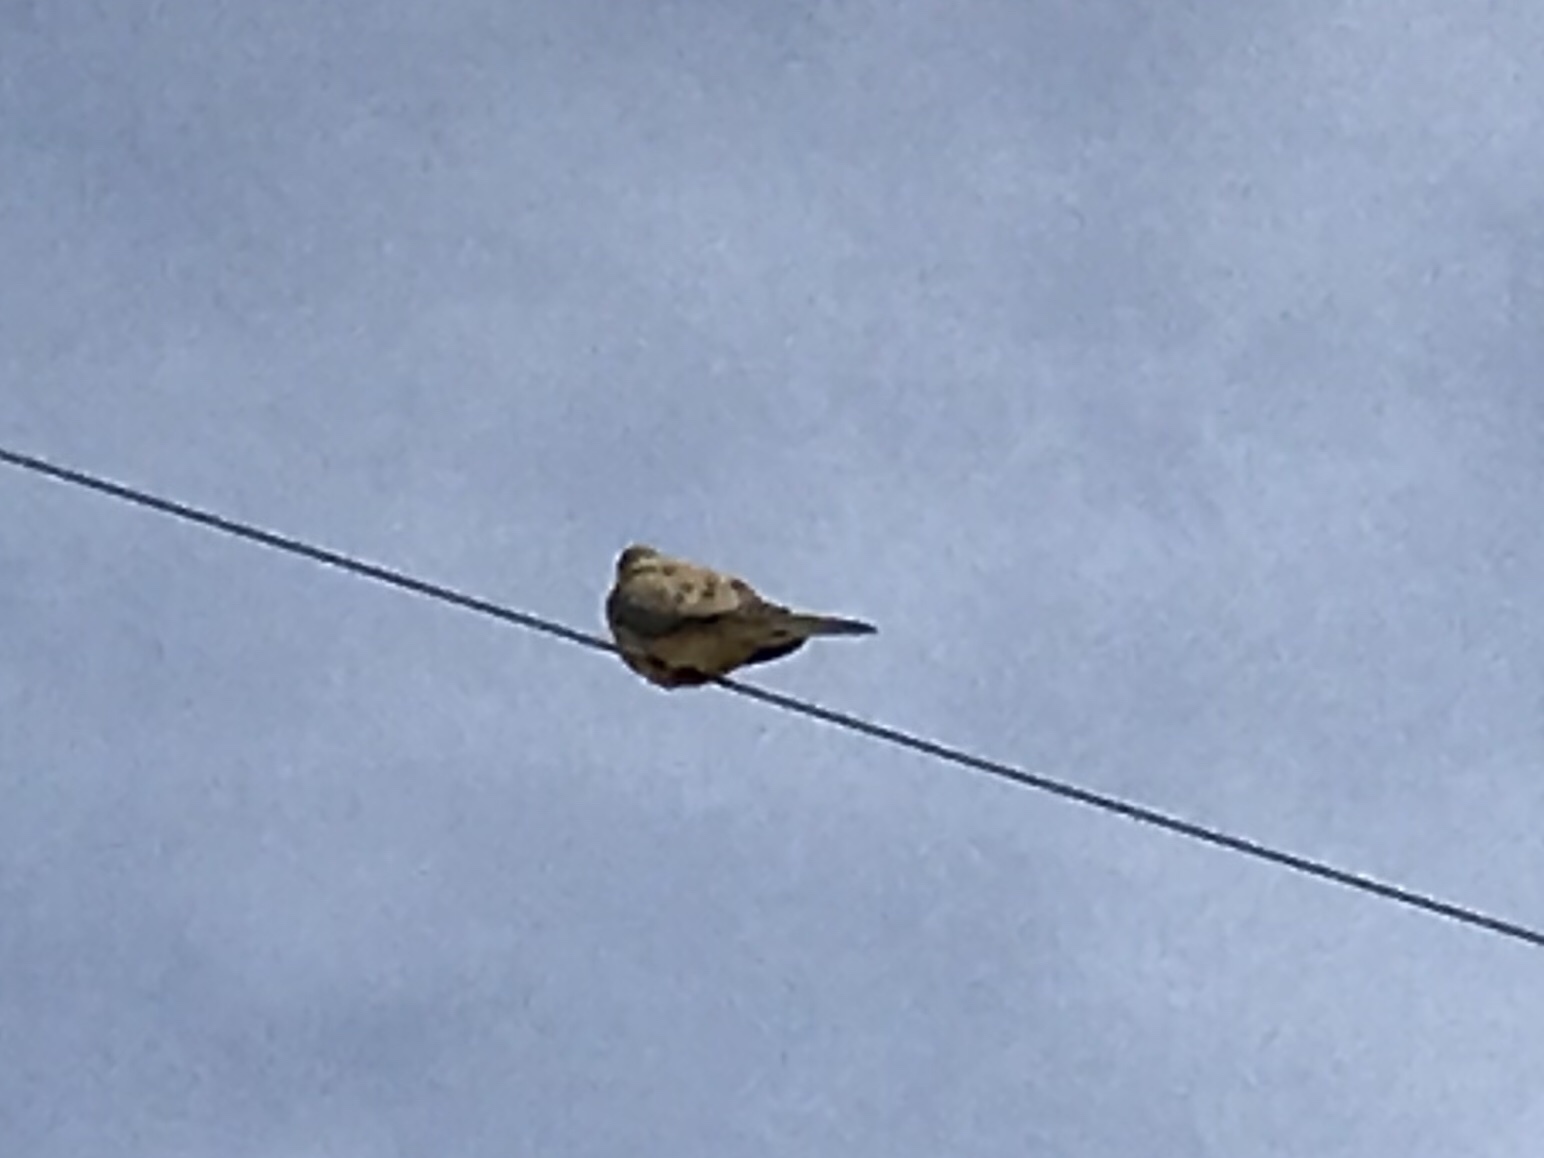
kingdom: Animalia
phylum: Chordata
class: Aves
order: Columbiformes
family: Columbidae
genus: Zenaida
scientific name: Zenaida macroura
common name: Mourning dove
